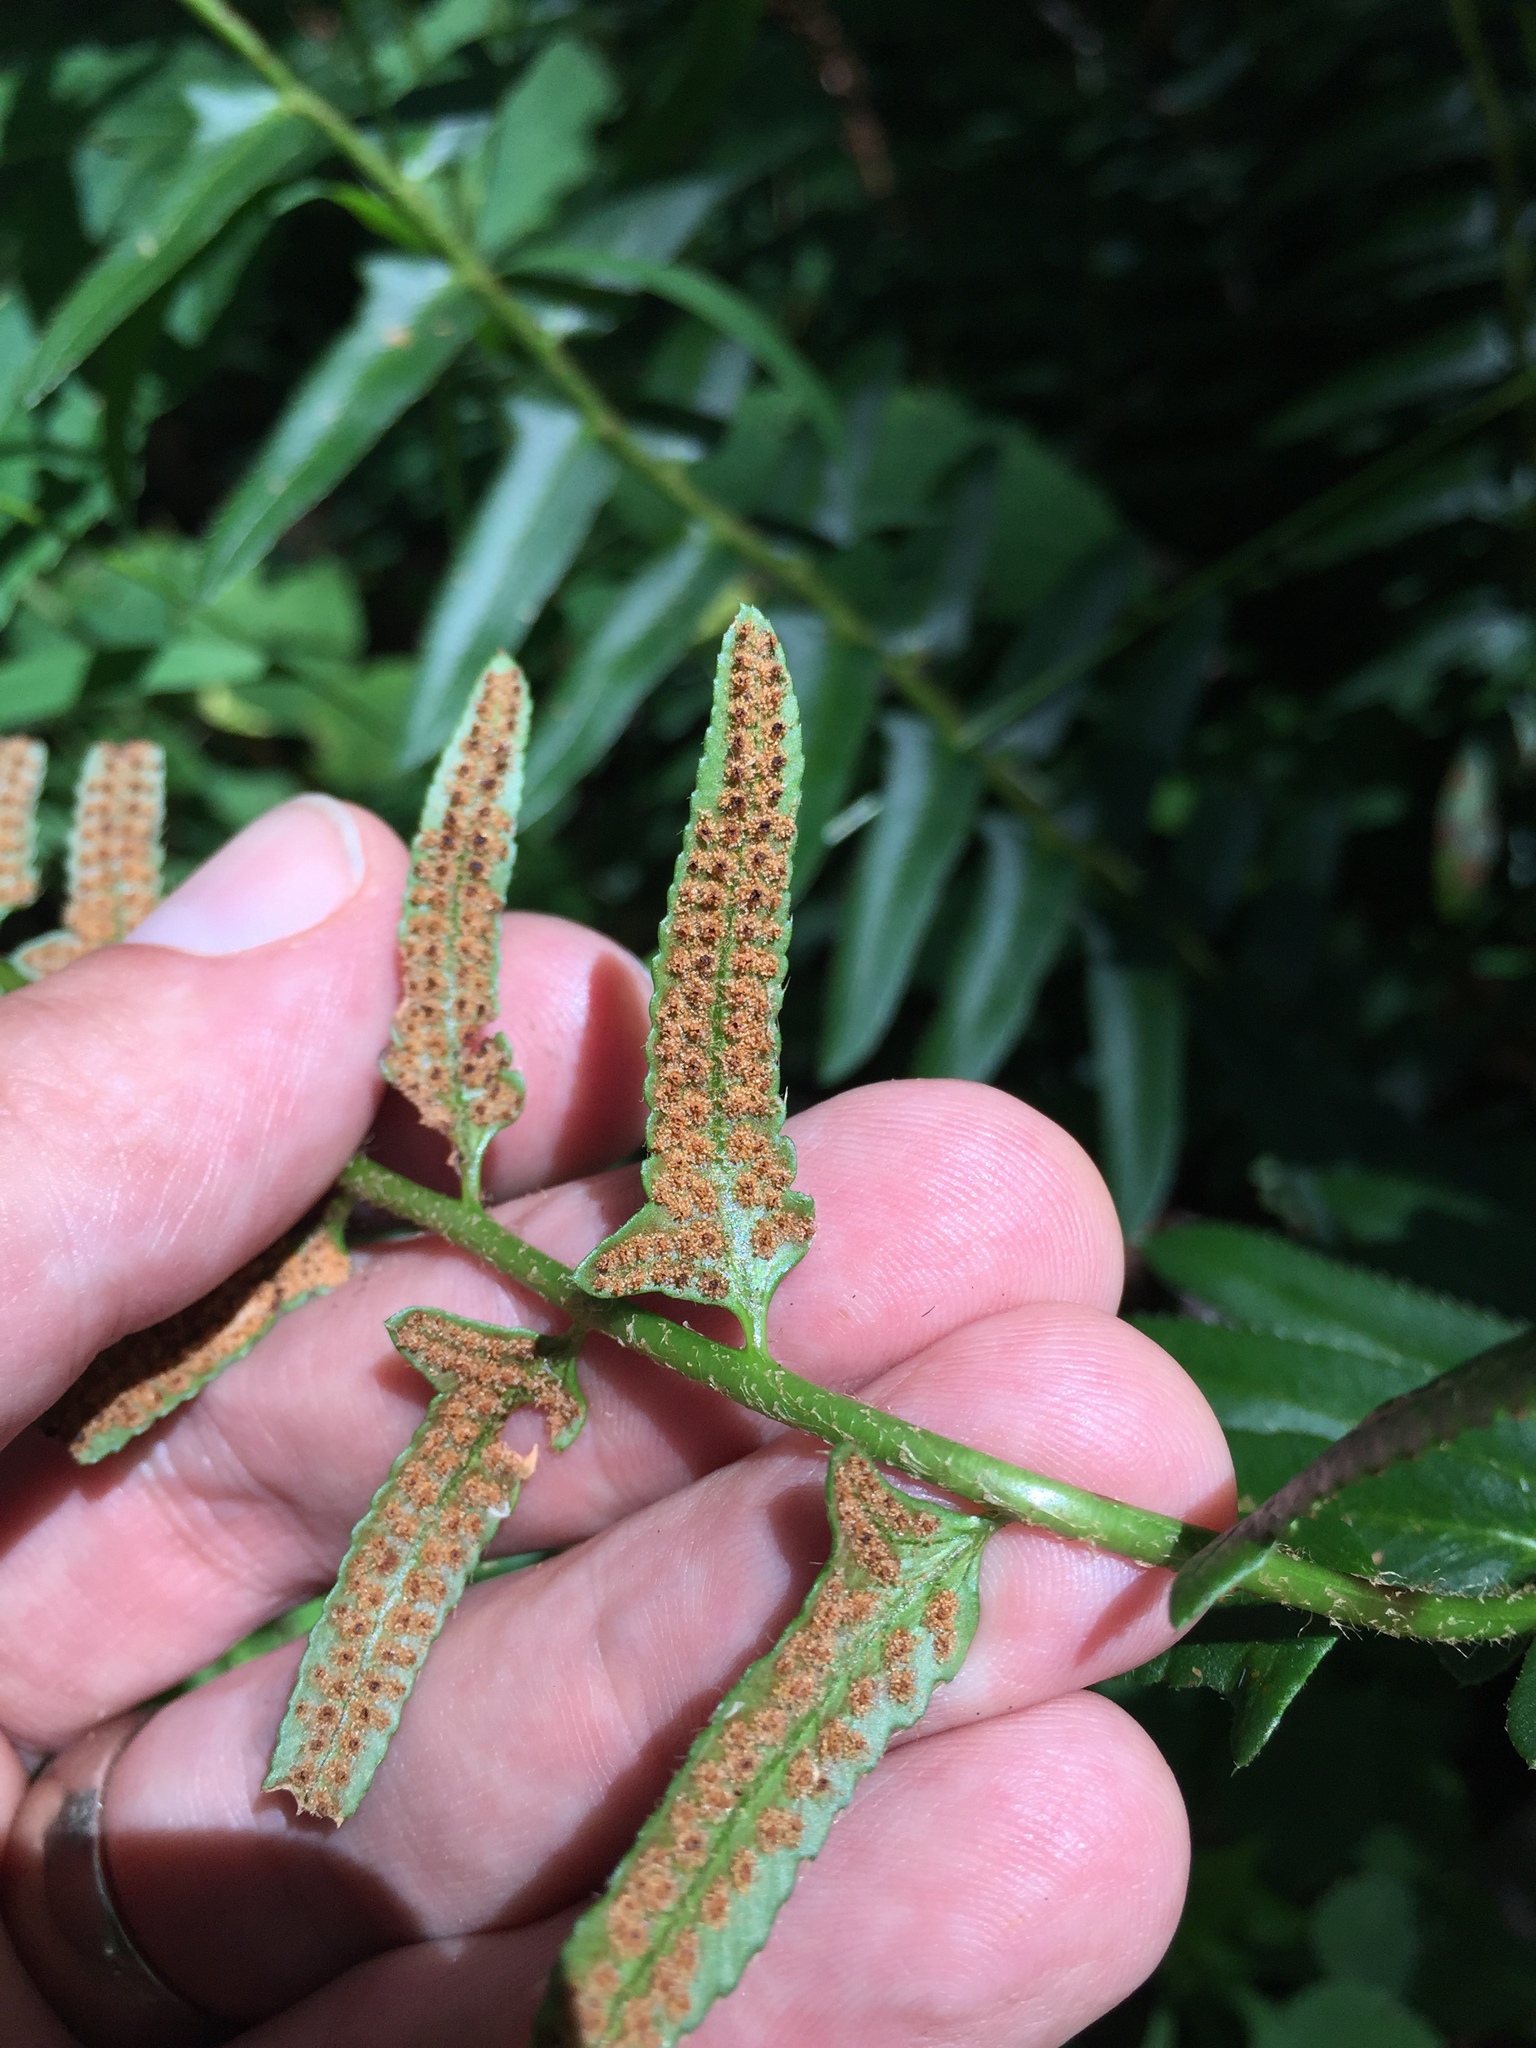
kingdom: Plantae
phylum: Tracheophyta
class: Polypodiopsida
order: Polypodiales
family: Dryopteridaceae
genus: Polystichum
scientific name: Polystichum acrostichoides
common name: Christmas fern
